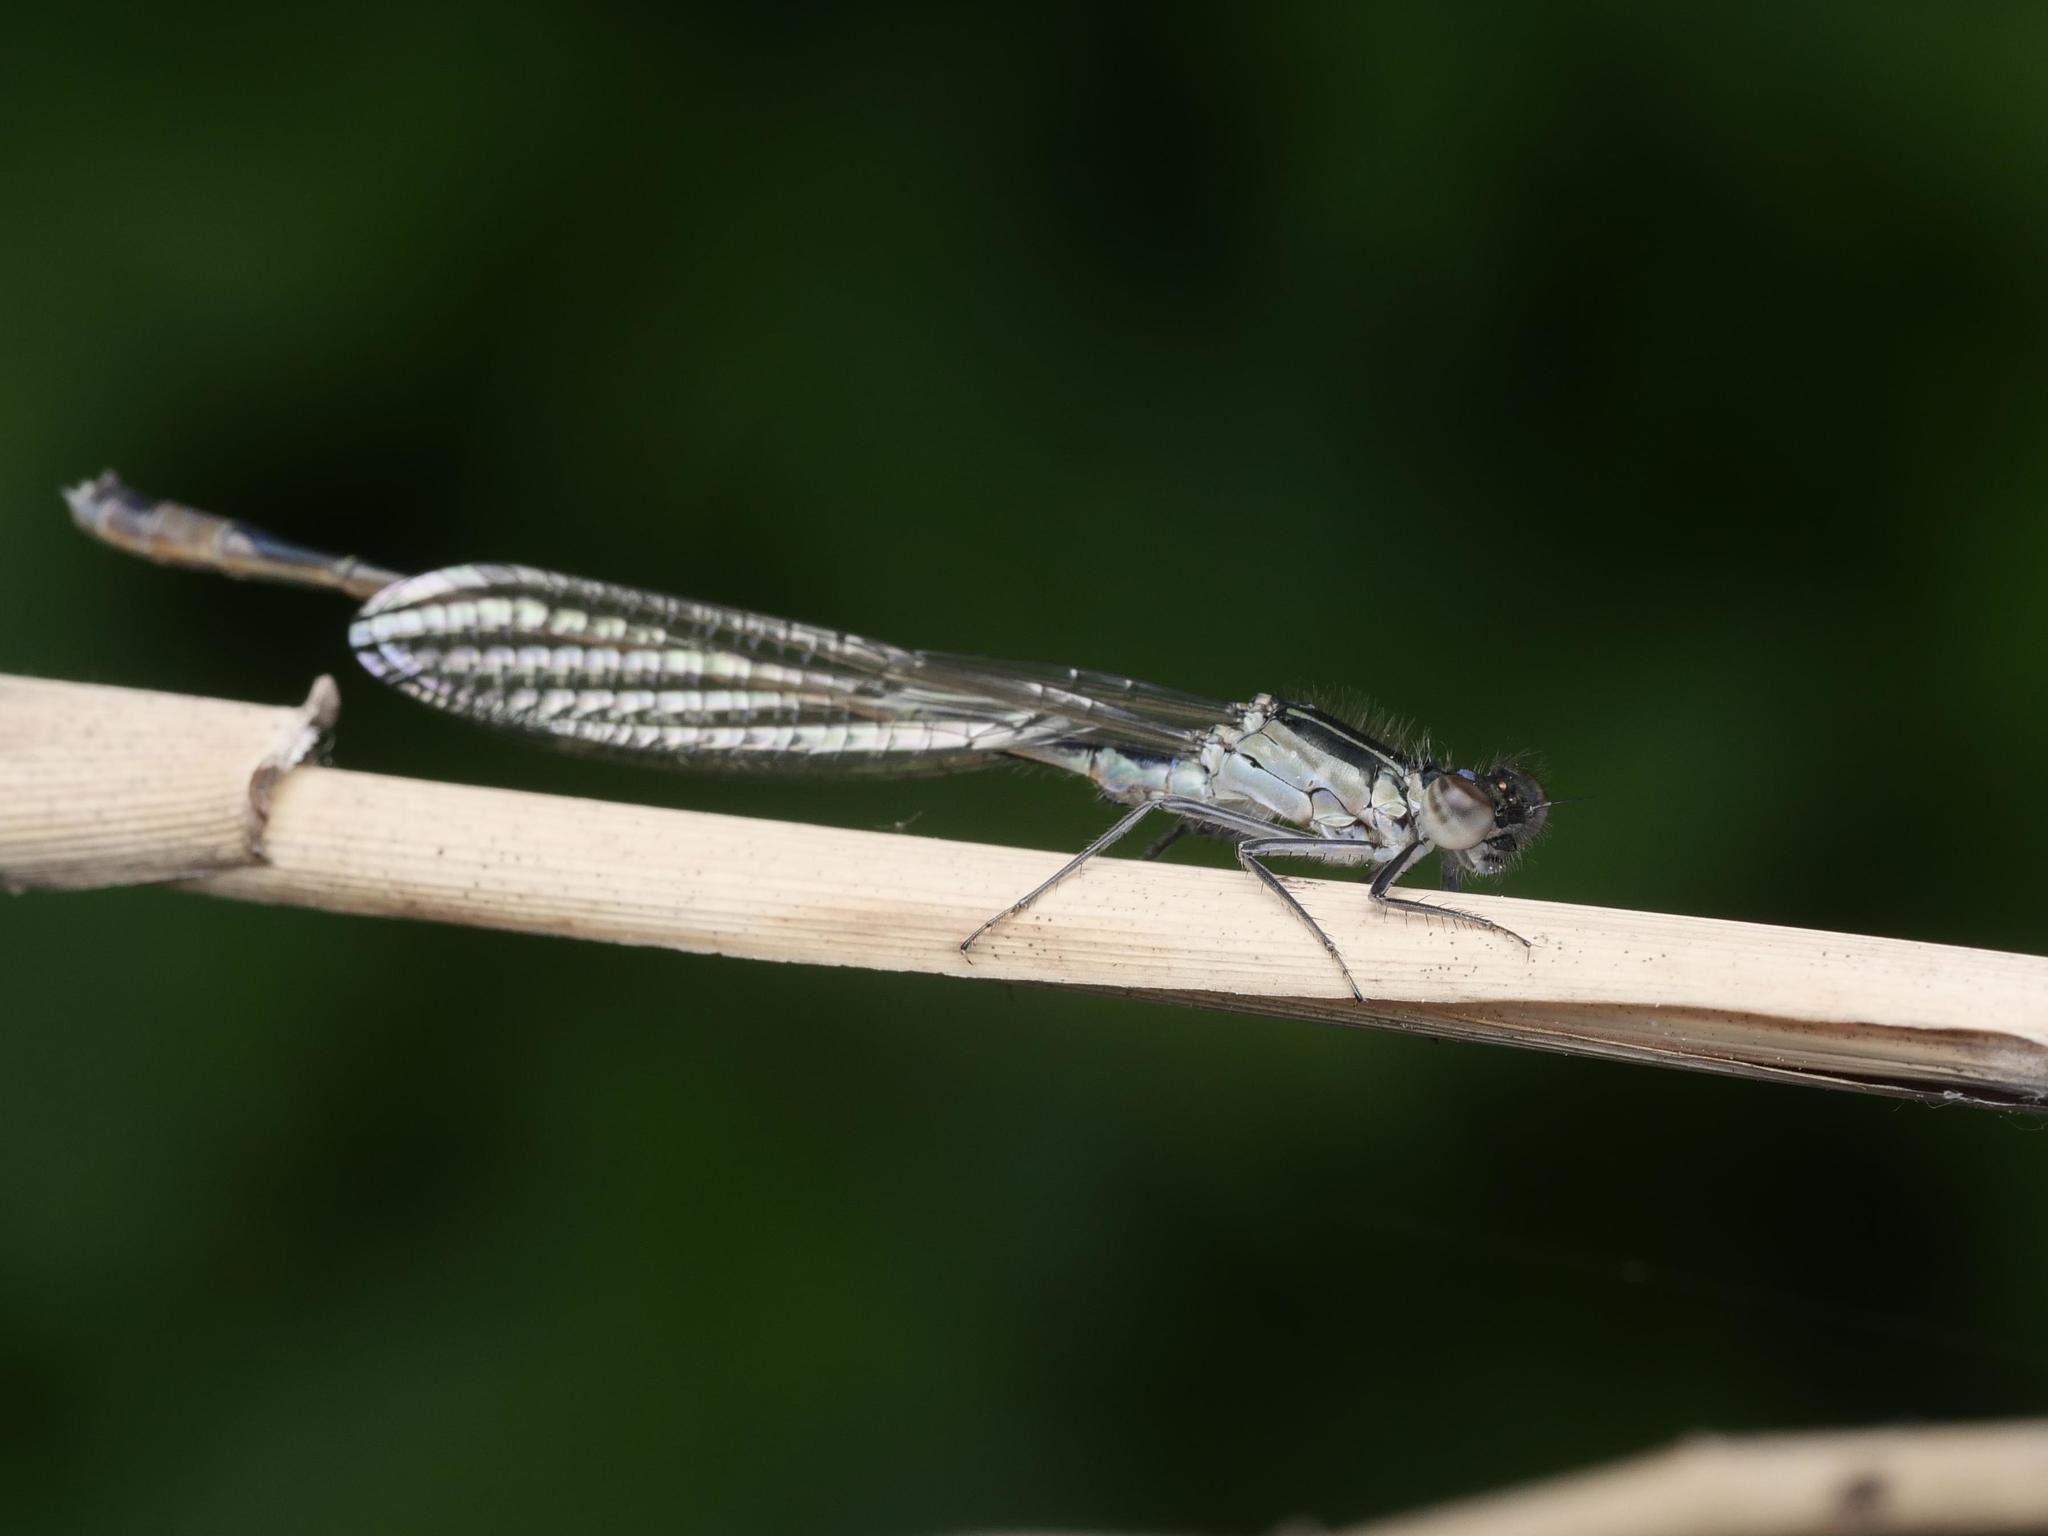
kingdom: Animalia
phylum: Arthropoda
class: Insecta
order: Odonata
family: Coenagrionidae
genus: Ischnura
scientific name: Ischnura elegans
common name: Blue-tailed damselfly
